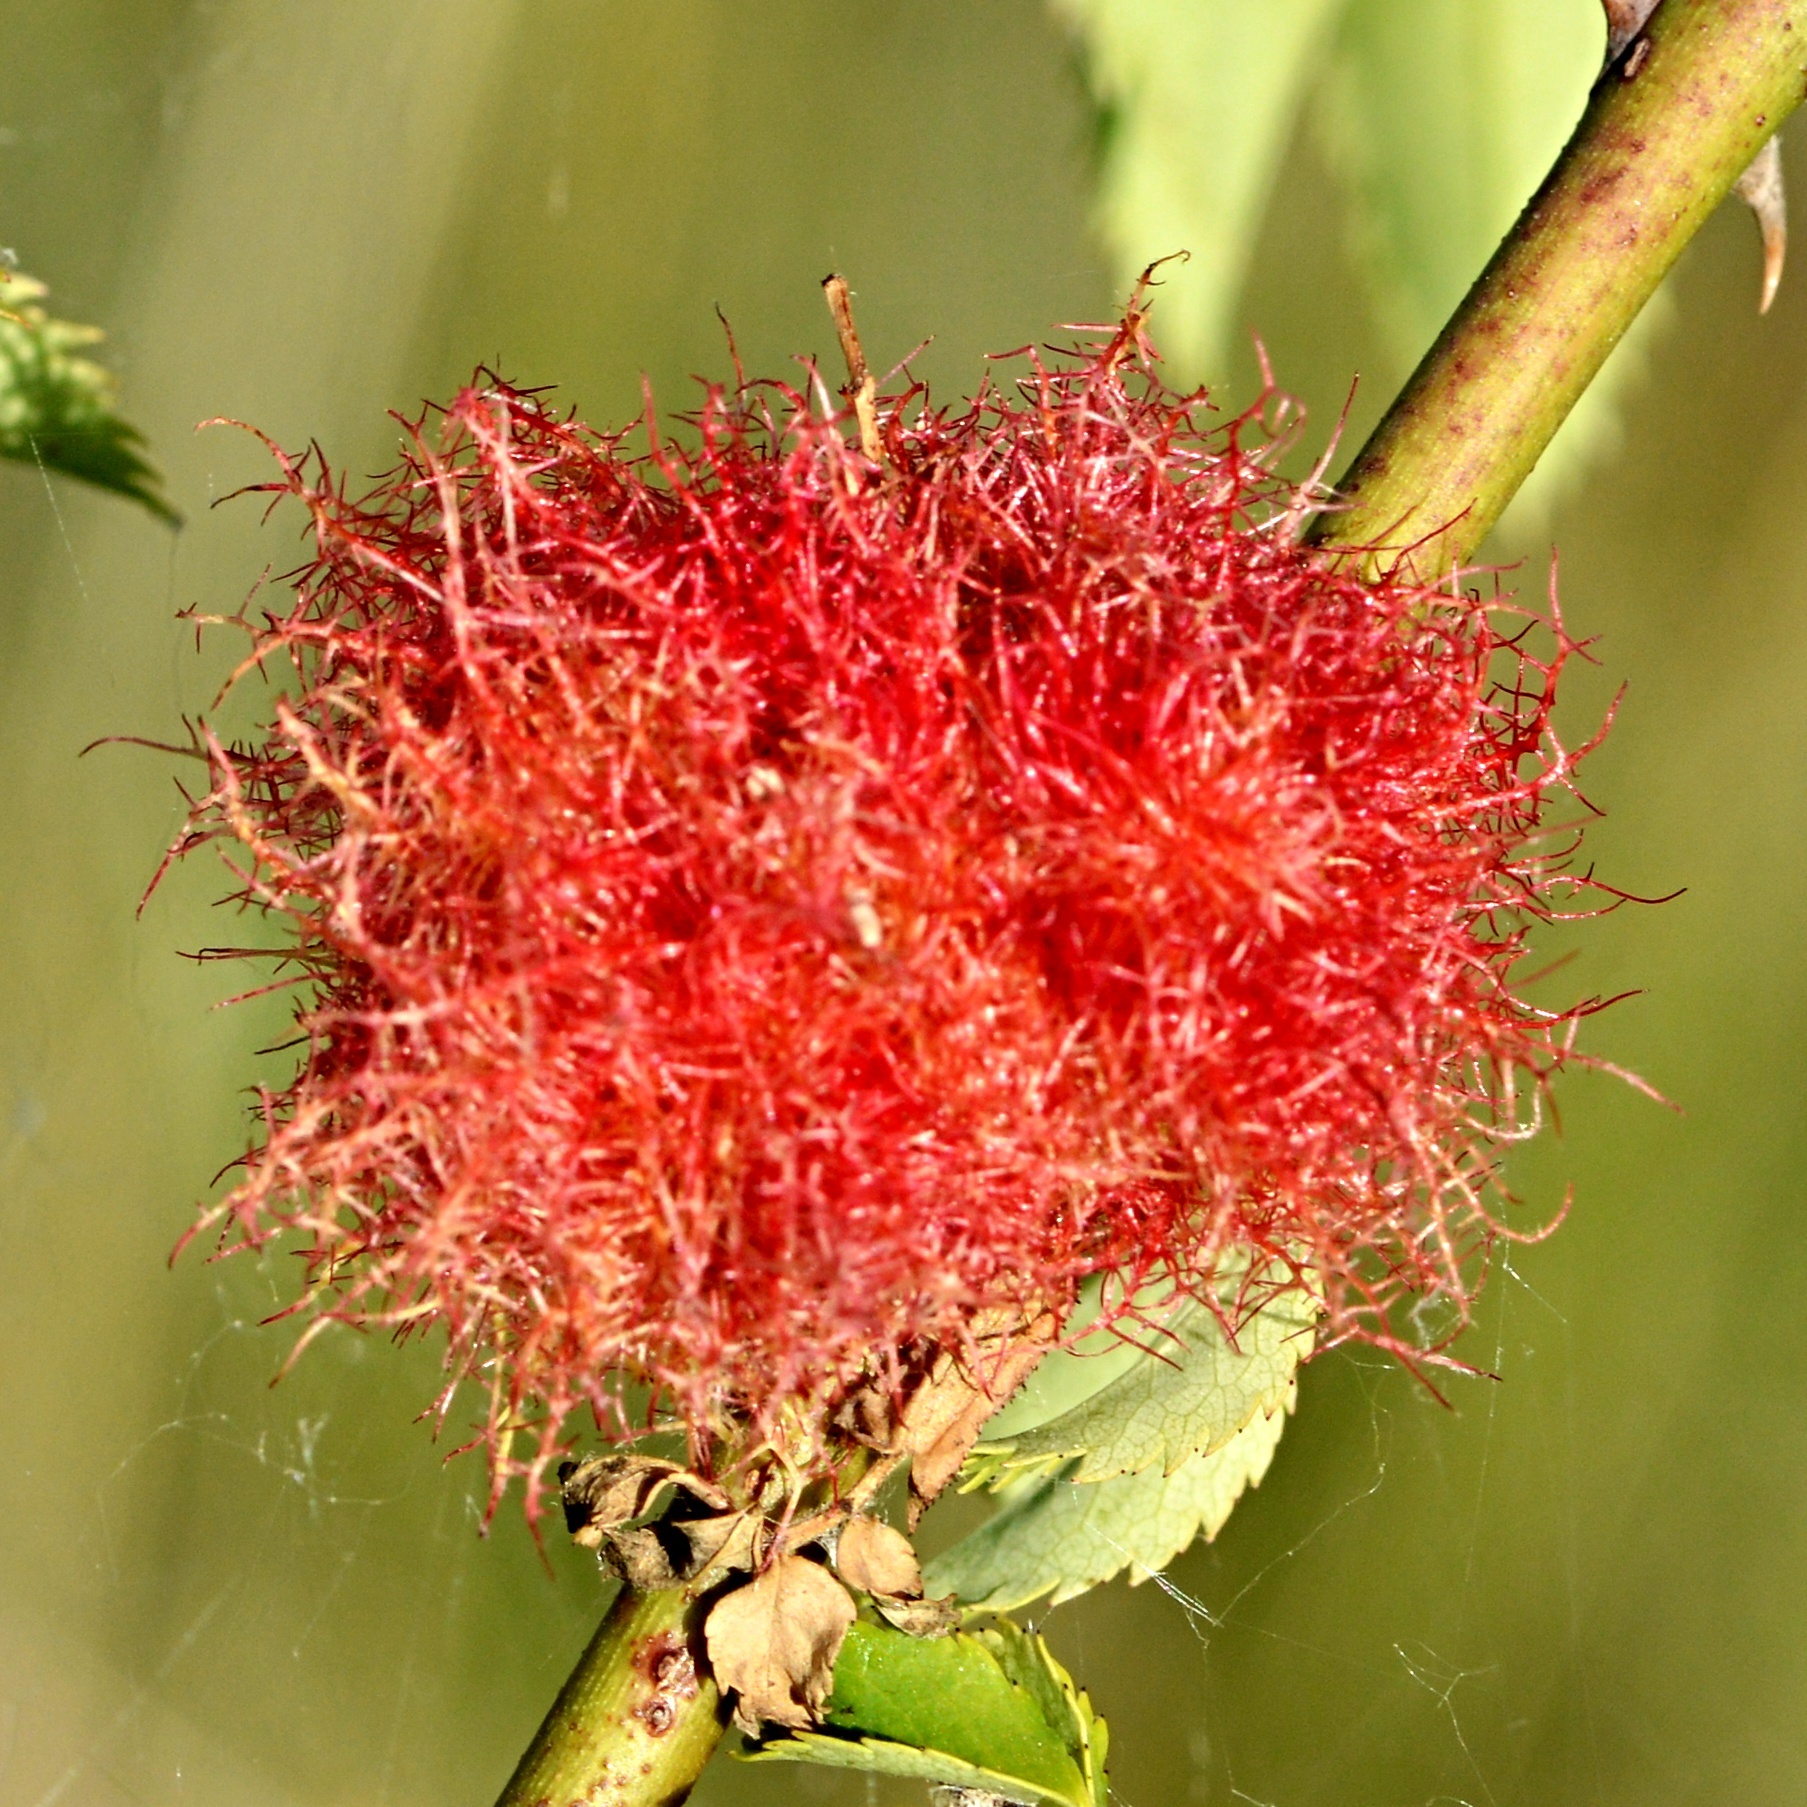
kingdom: Animalia
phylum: Arthropoda
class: Insecta
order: Hymenoptera
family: Cynipidae
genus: Diplolepis
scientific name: Diplolepis rosae
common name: Bedeguar gall
